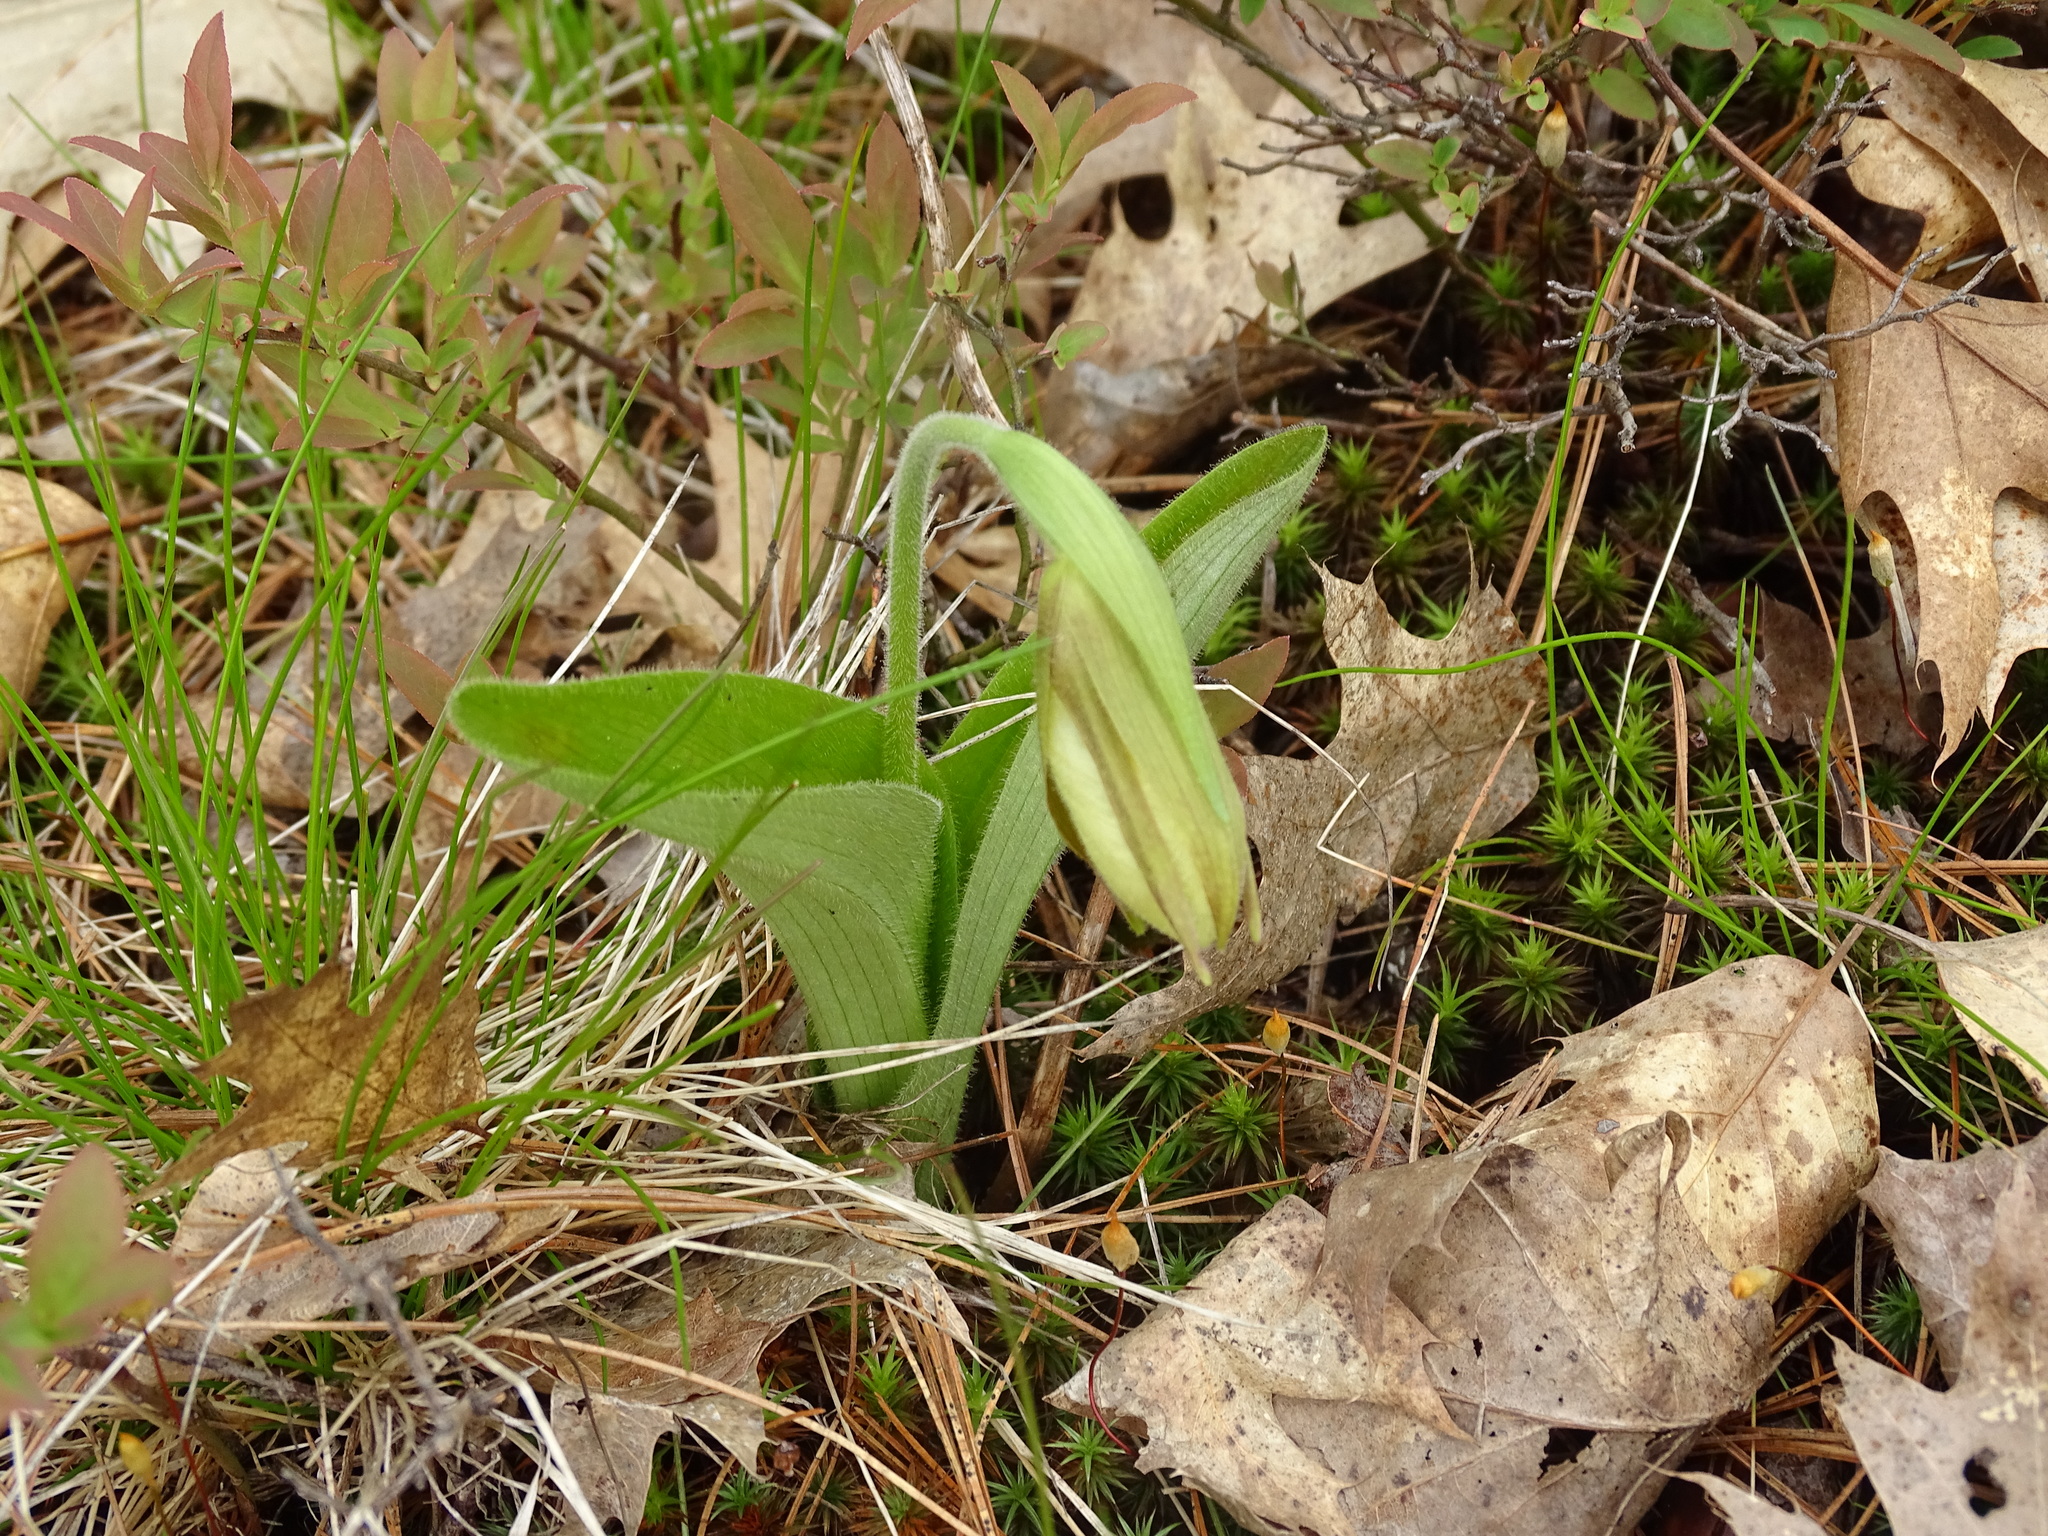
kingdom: Plantae
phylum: Tracheophyta
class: Liliopsida
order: Asparagales
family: Orchidaceae
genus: Cypripedium
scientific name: Cypripedium acaule
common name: Pink lady's-slipper
